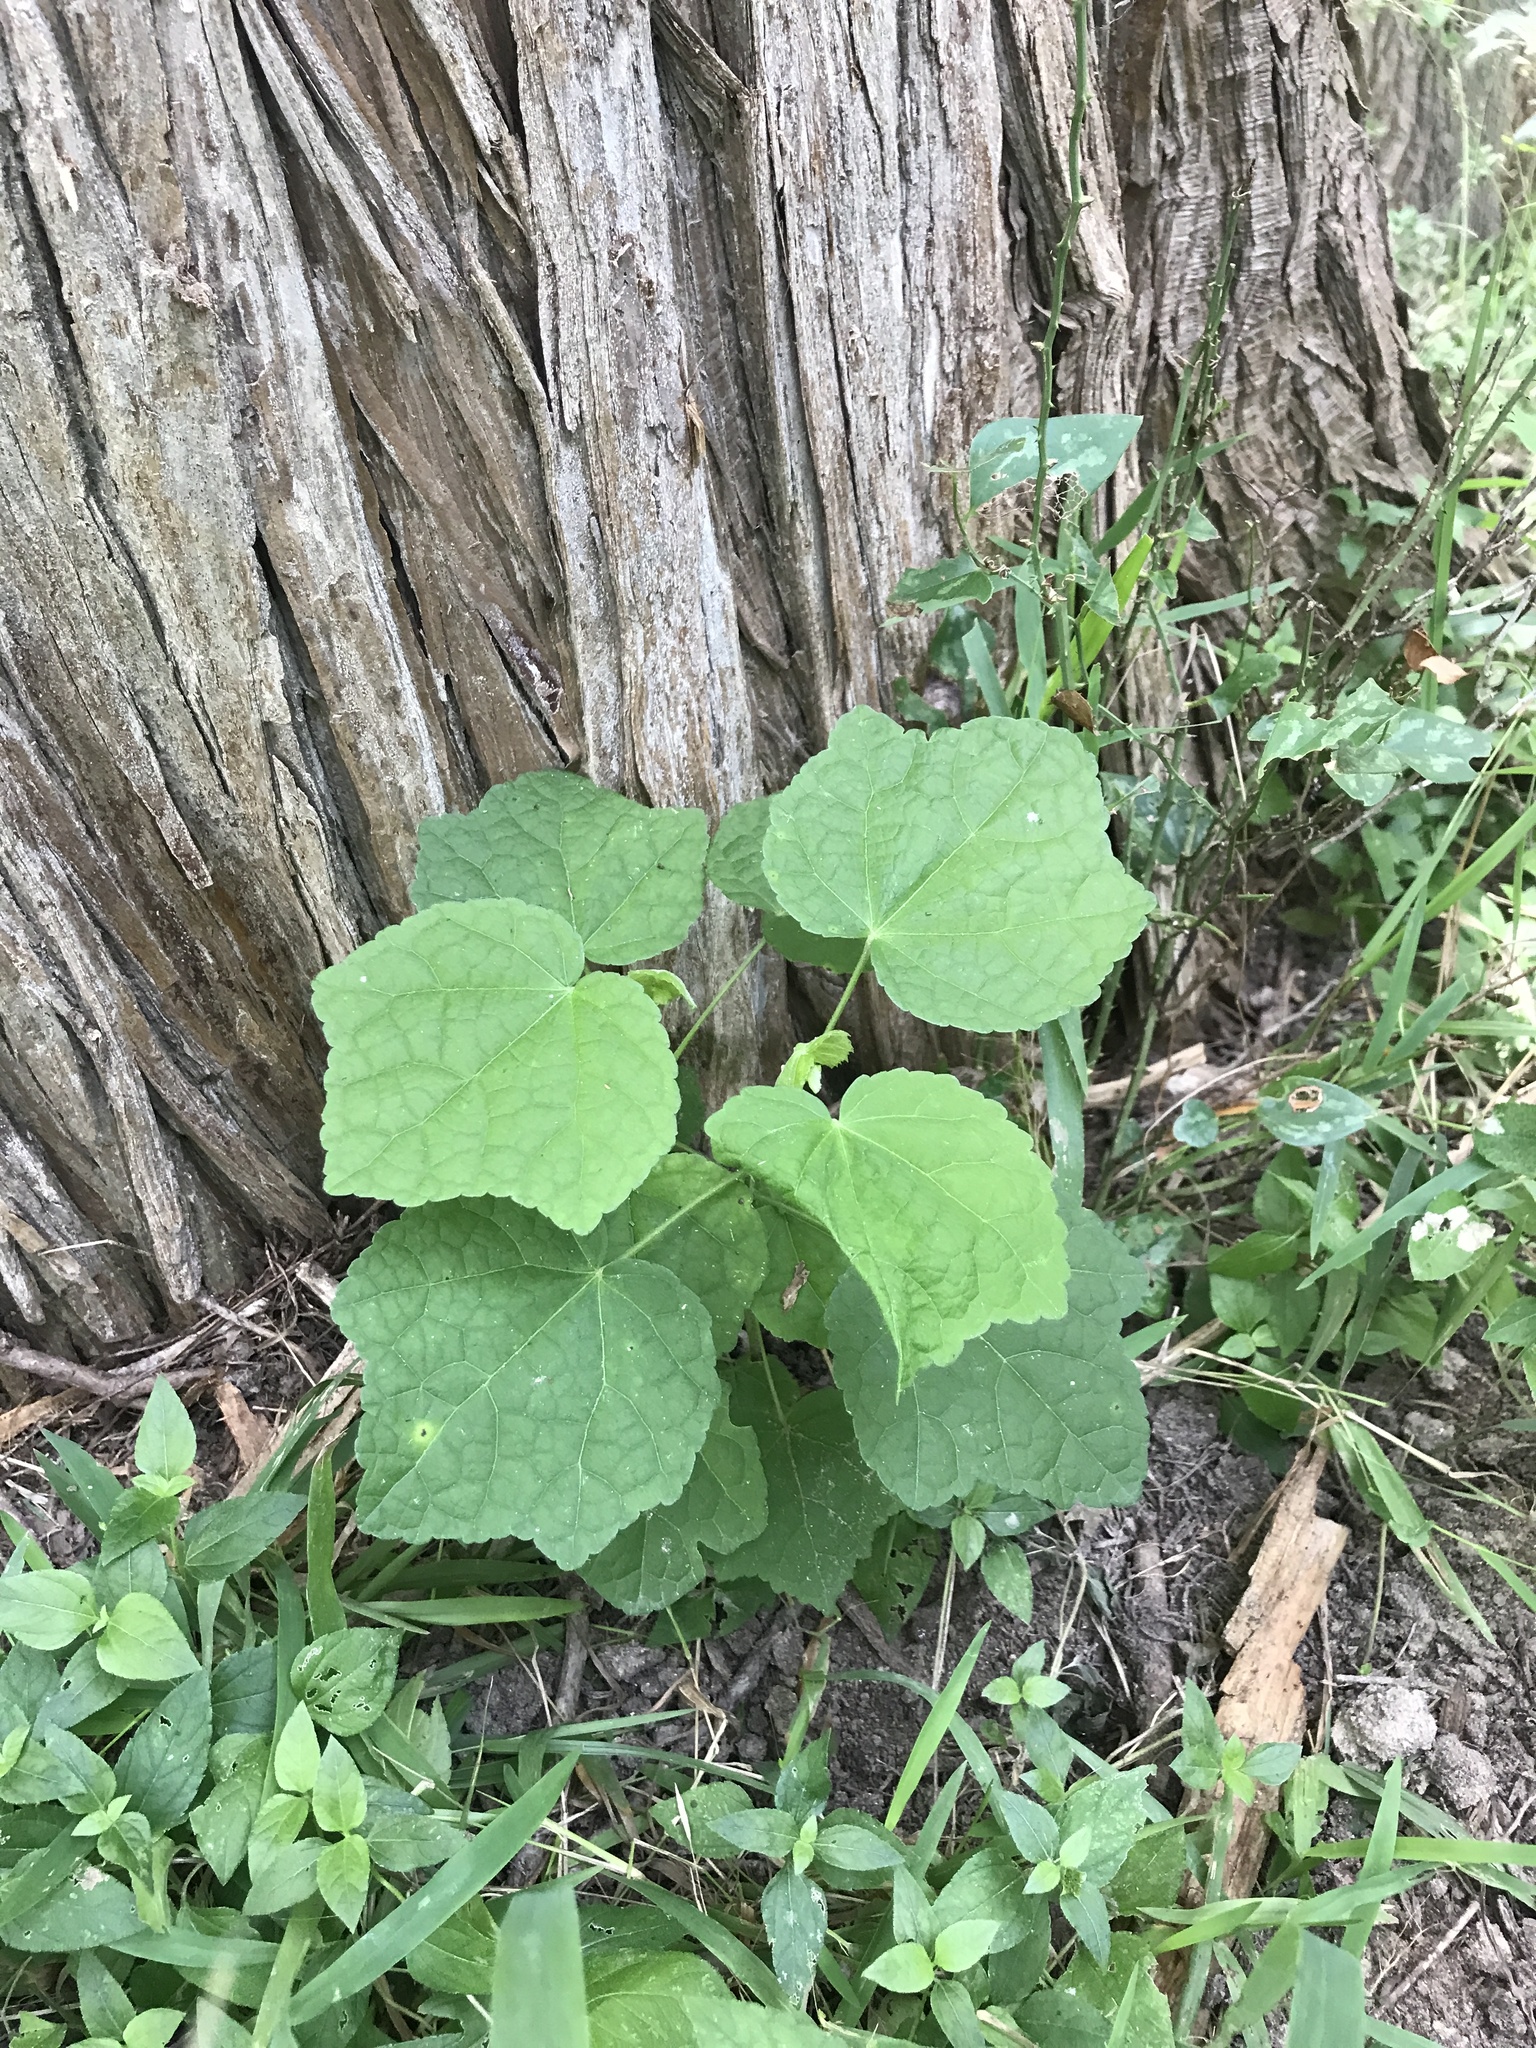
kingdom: Plantae
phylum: Tracheophyta
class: Magnoliopsida
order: Malvales
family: Malvaceae
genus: Malvaviscus
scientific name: Malvaviscus arboreus
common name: Wax mallow
